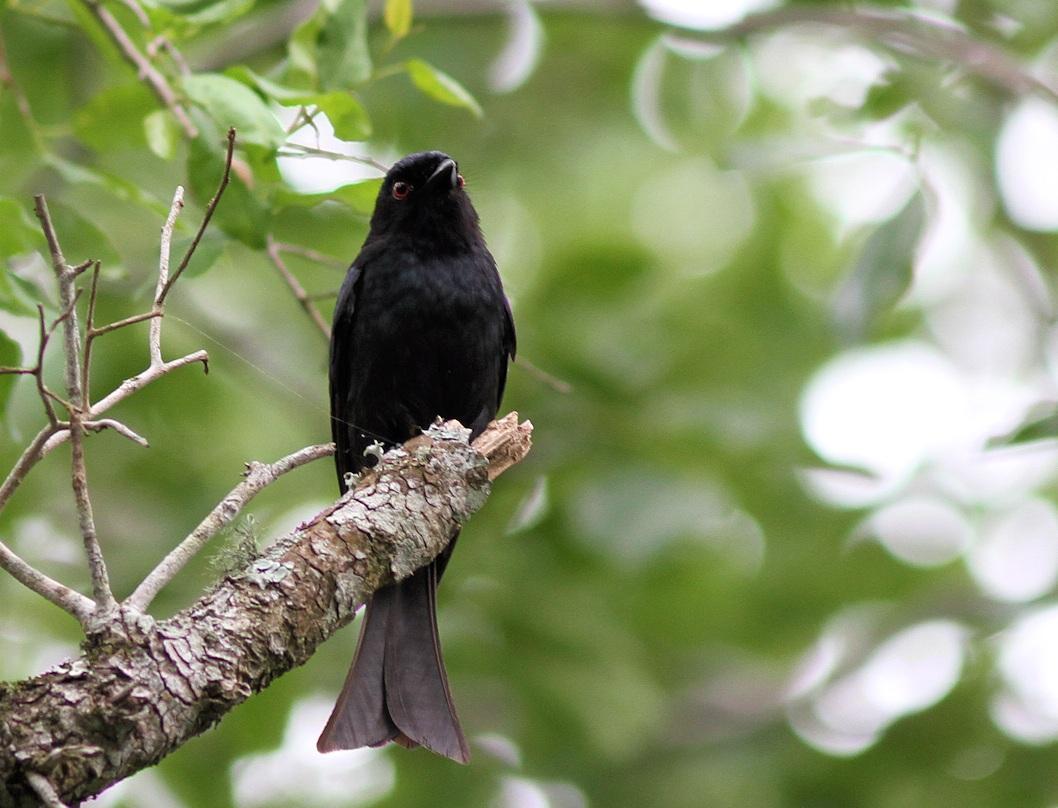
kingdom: Animalia
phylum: Chordata
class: Aves
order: Passeriformes
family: Dicruridae
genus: Dicrurus
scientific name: Dicrurus ludwigii
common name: Square-tailed drongo
